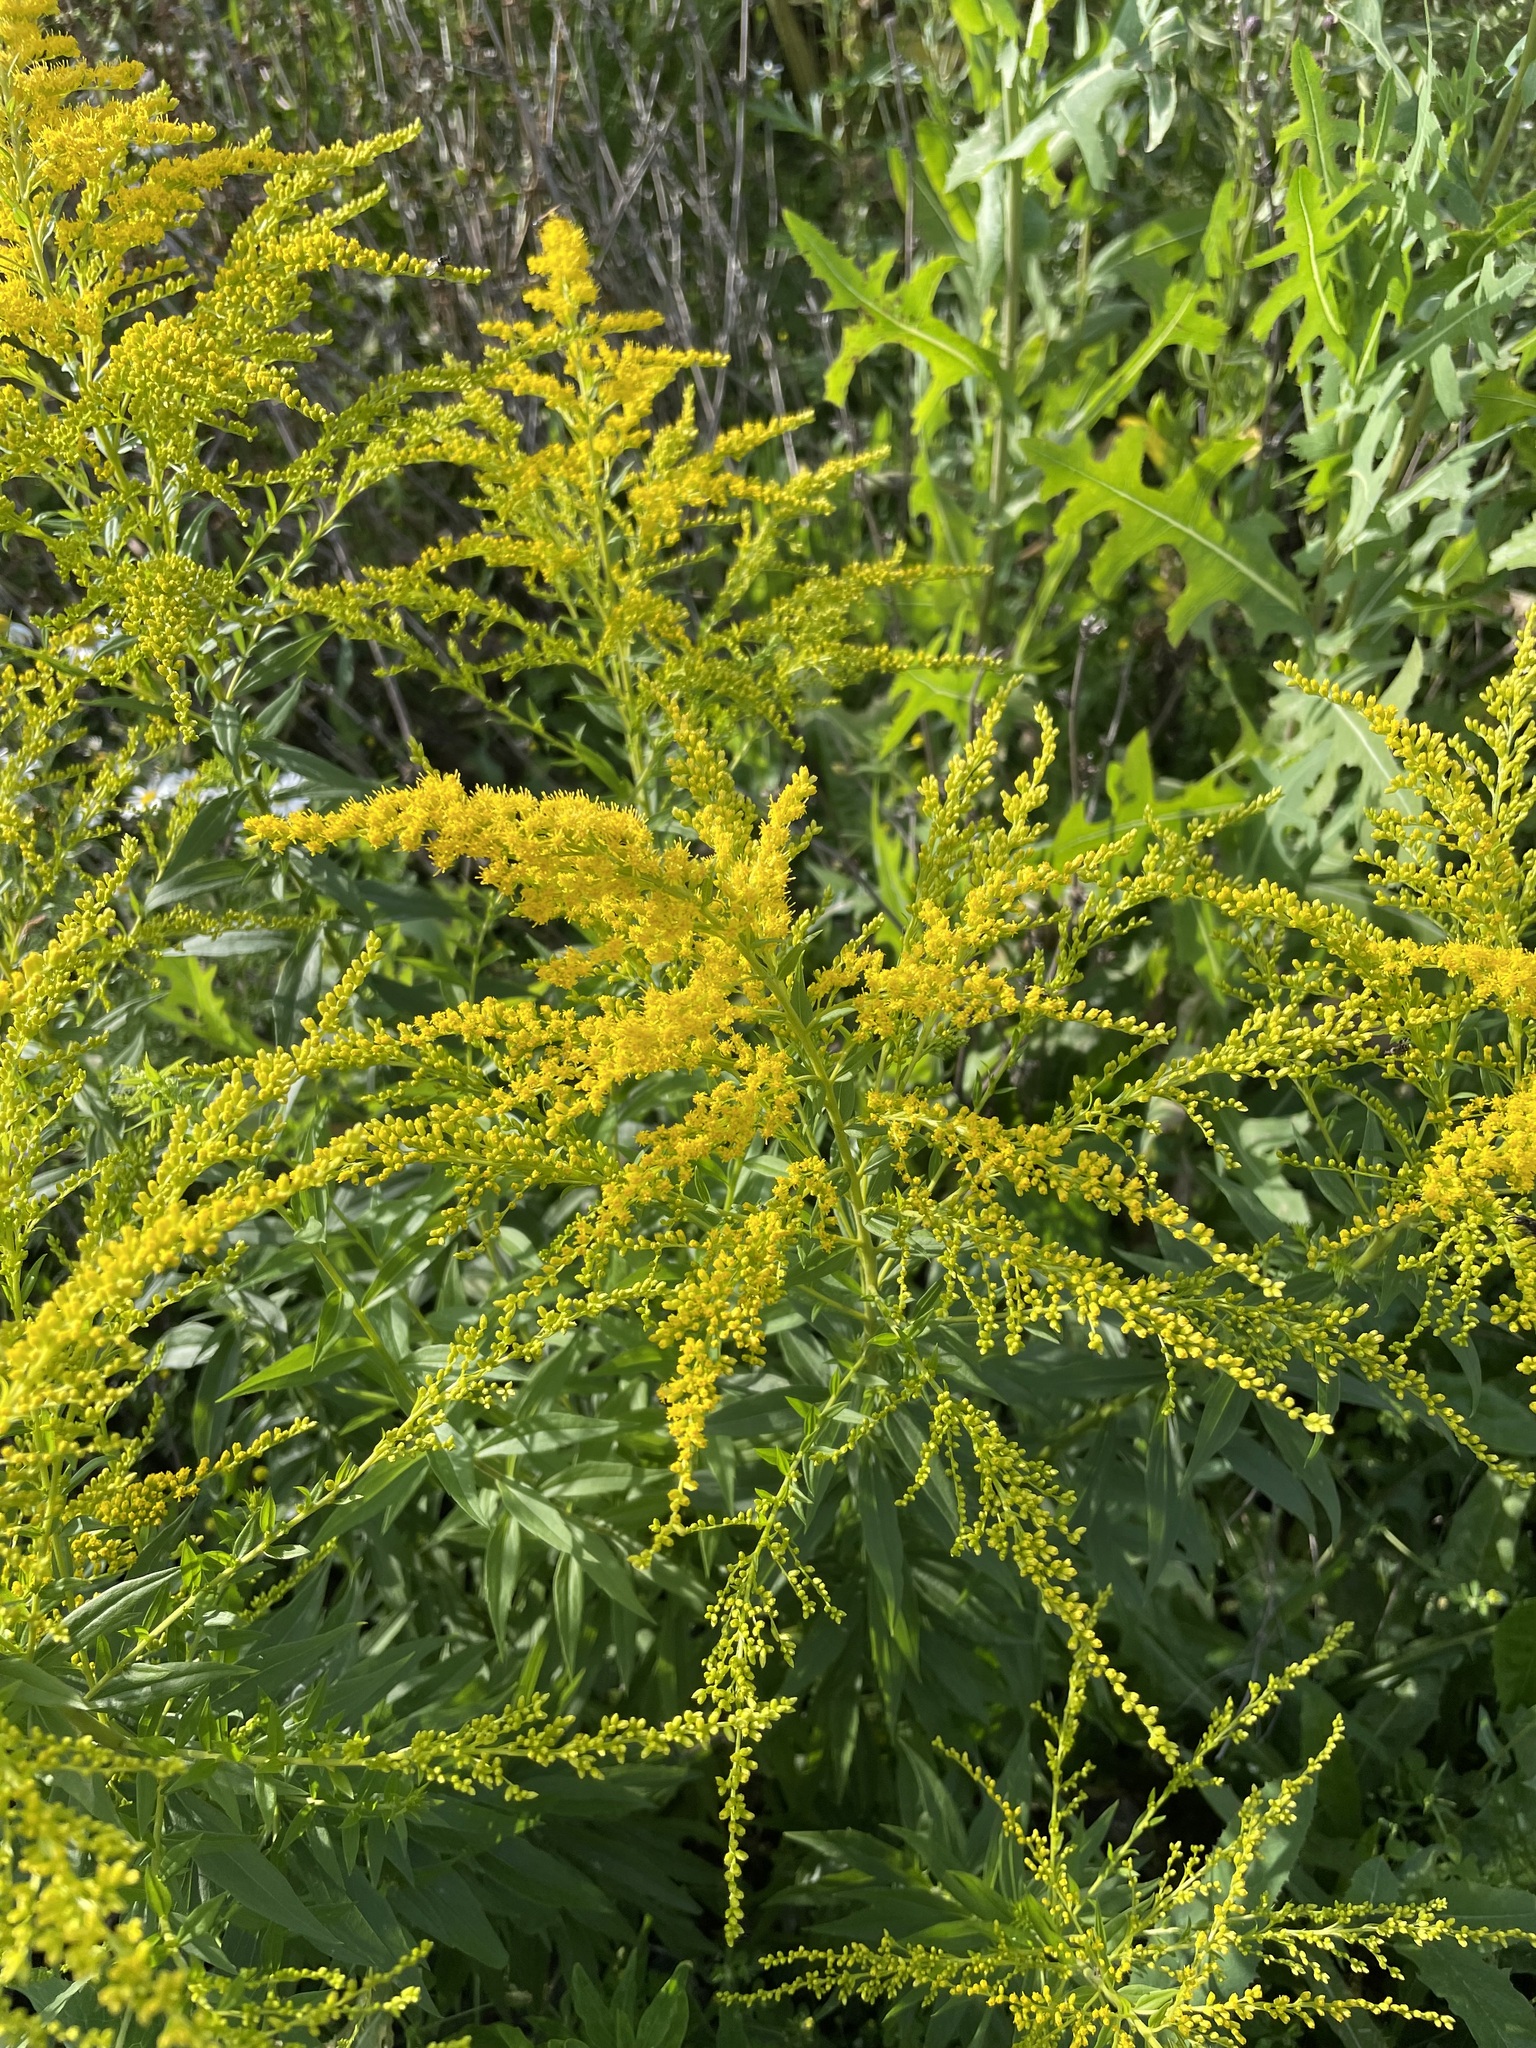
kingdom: Plantae
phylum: Tracheophyta
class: Magnoliopsida
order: Asterales
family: Asteraceae
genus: Solidago
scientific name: Solidago canadensis
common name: Canada goldenrod
